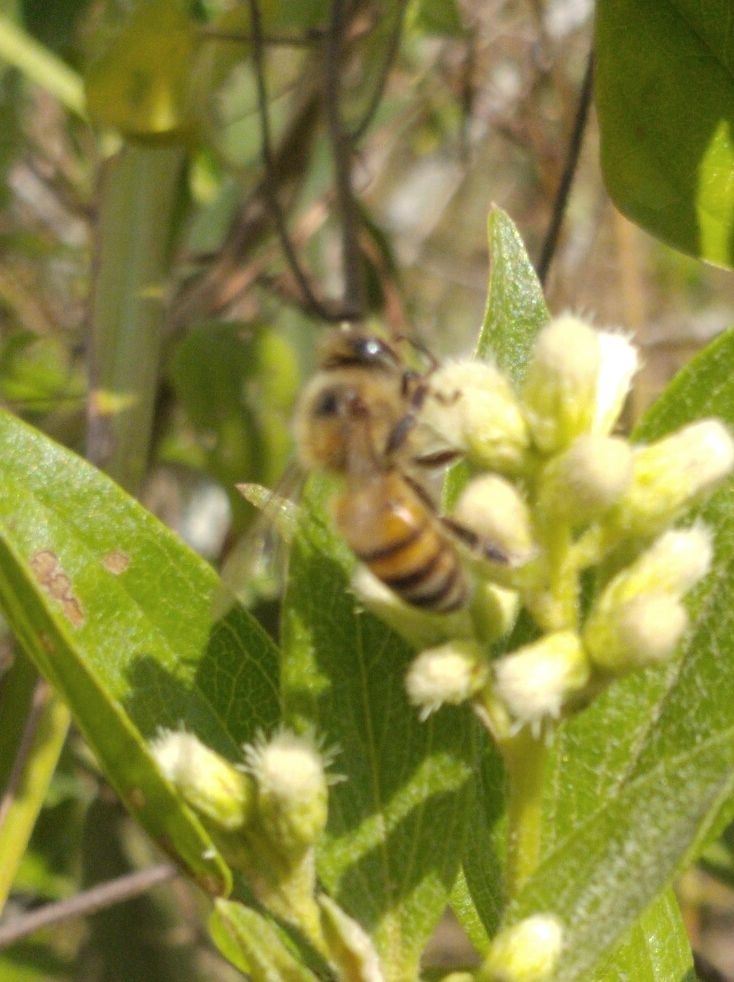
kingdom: Animalia
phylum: Arthropoda
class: Insecta
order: Hymenoptera
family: Apidae
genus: Apis
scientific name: Apis mellifera
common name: Honey bee
